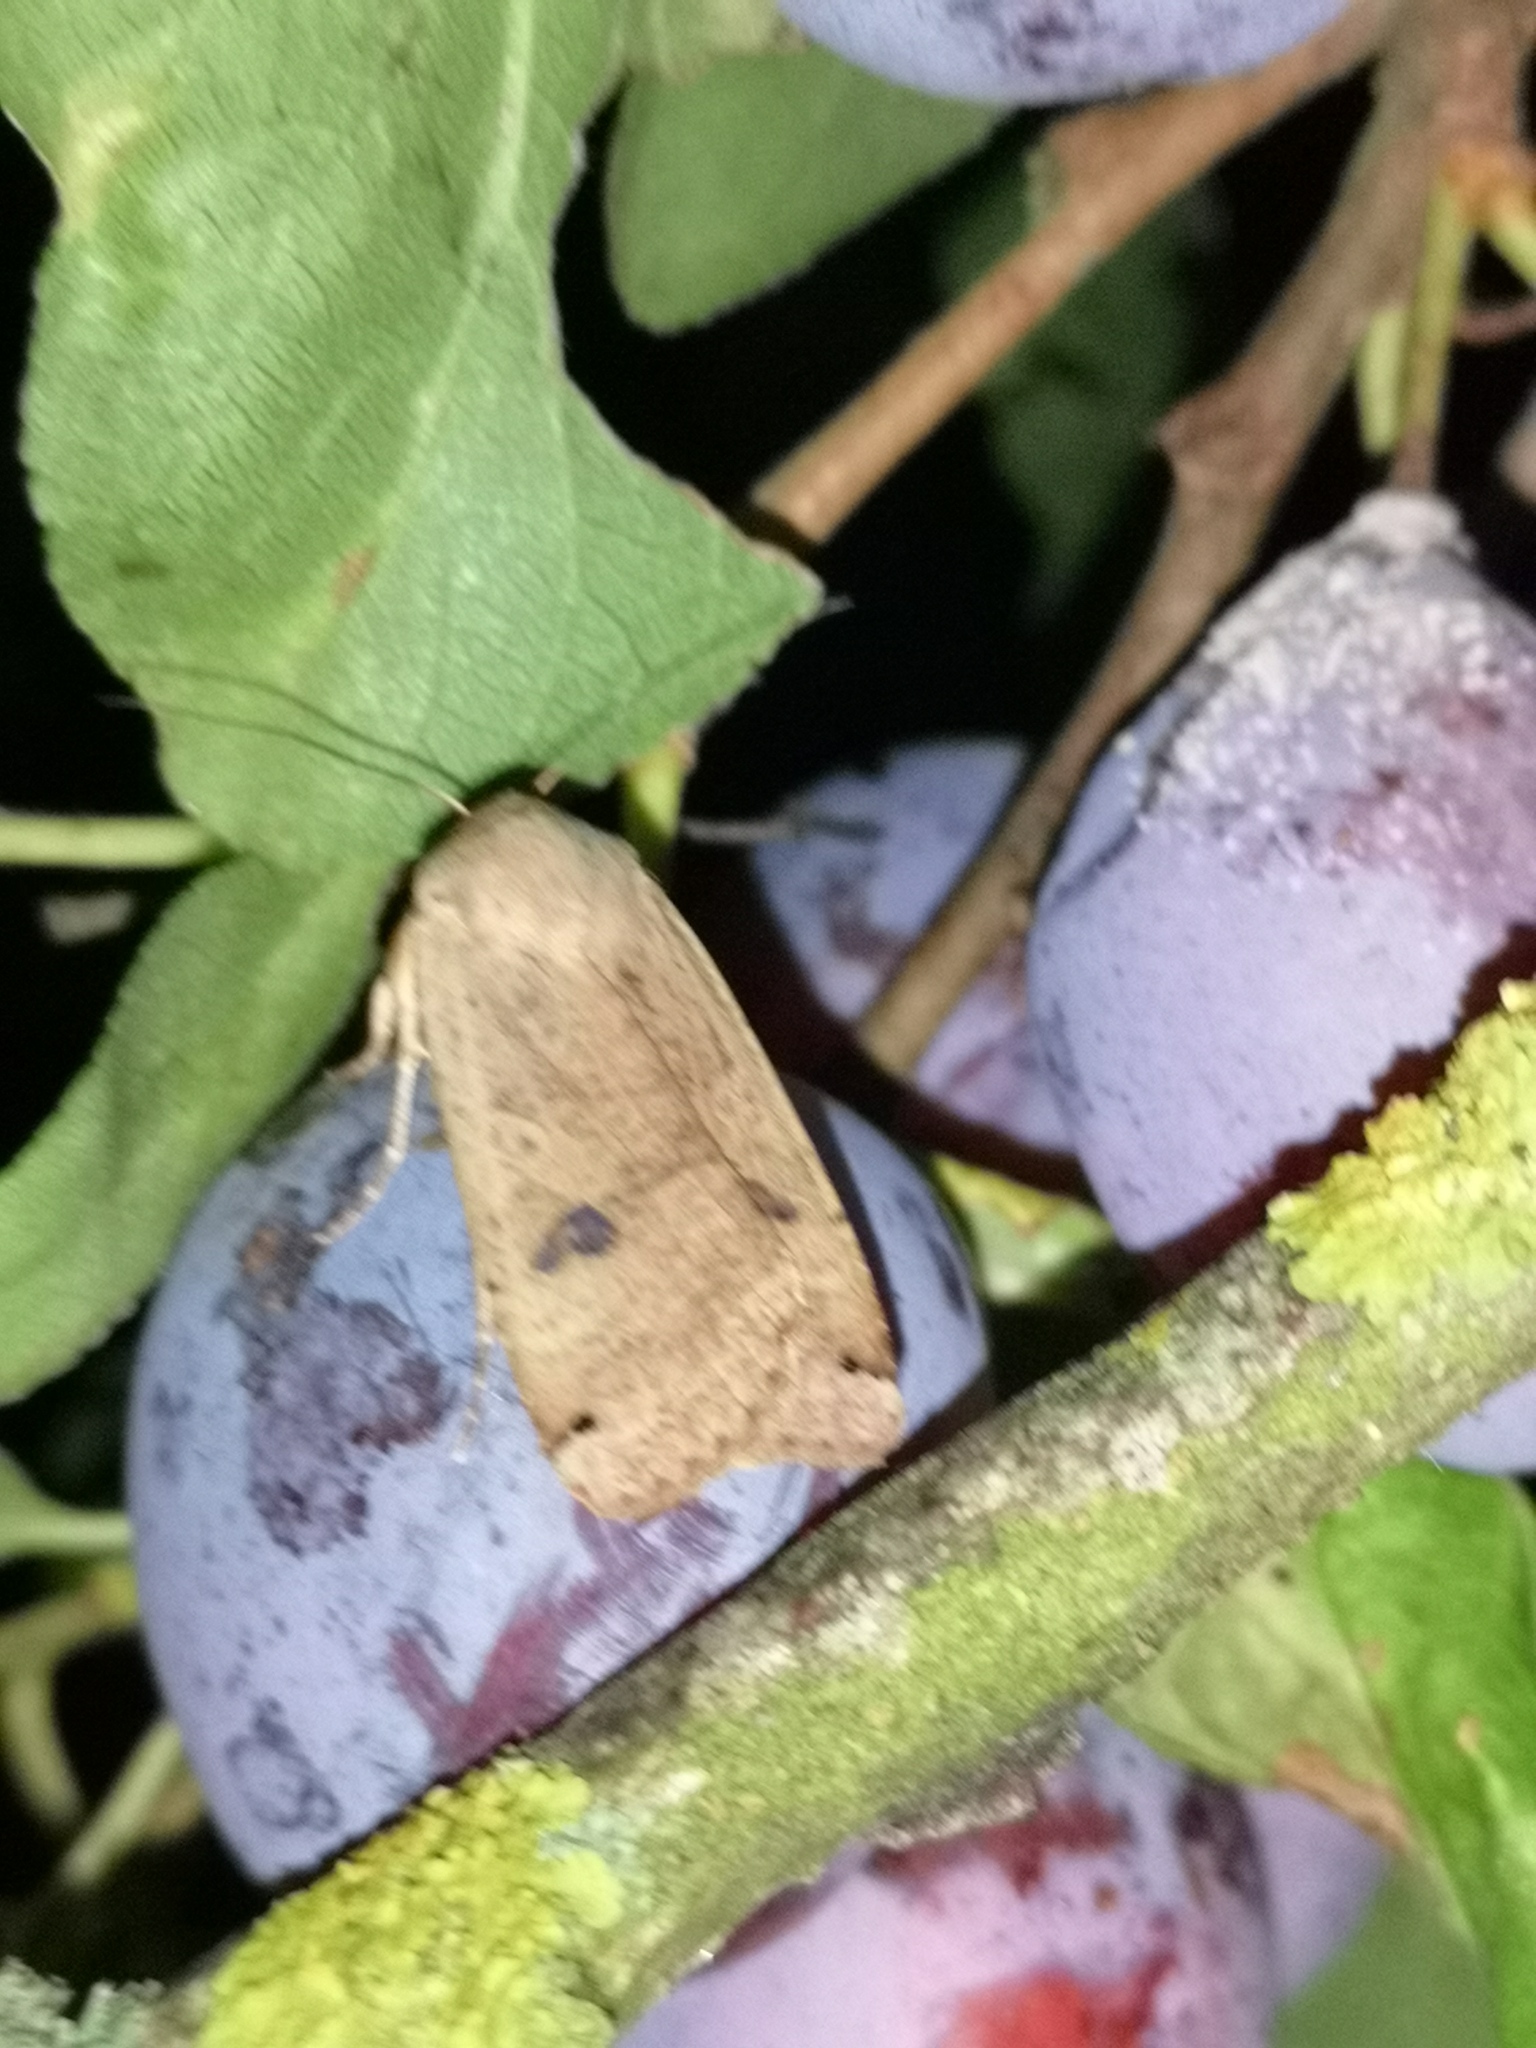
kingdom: Animalia
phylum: Arthropoda
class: Insecta
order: Lepidoptera
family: Noctuidae
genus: Noctua
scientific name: Noctua pronuba
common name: Large yellow underwing
